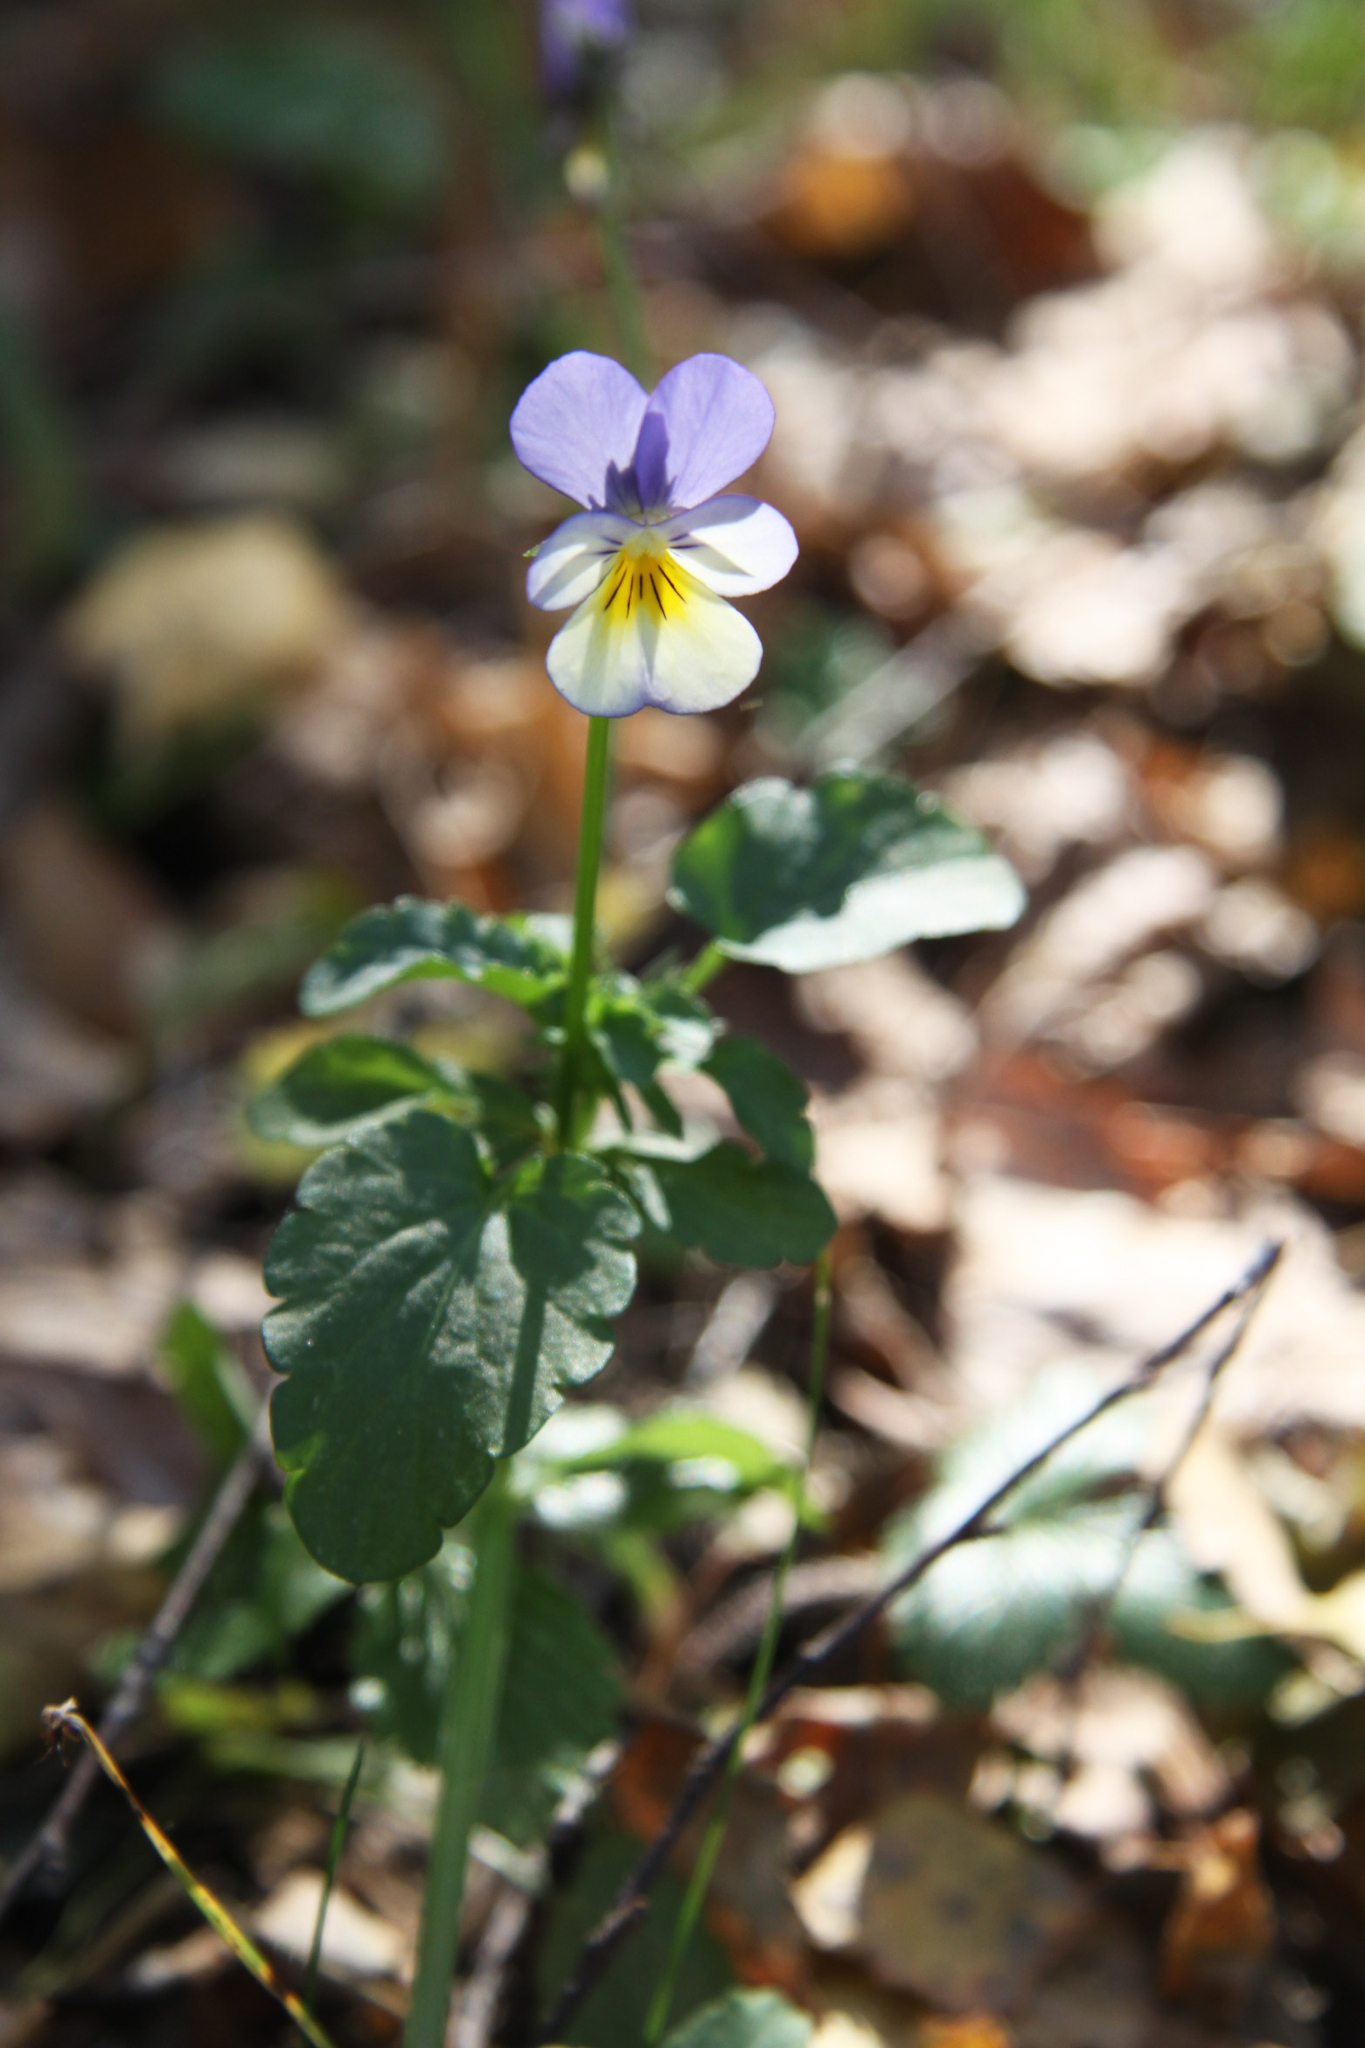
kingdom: Plantae
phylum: Tracheophyta
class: Magnoliopsida
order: Malpighiales
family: Violaceae
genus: Viola
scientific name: Viola tricolor
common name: Pansy
